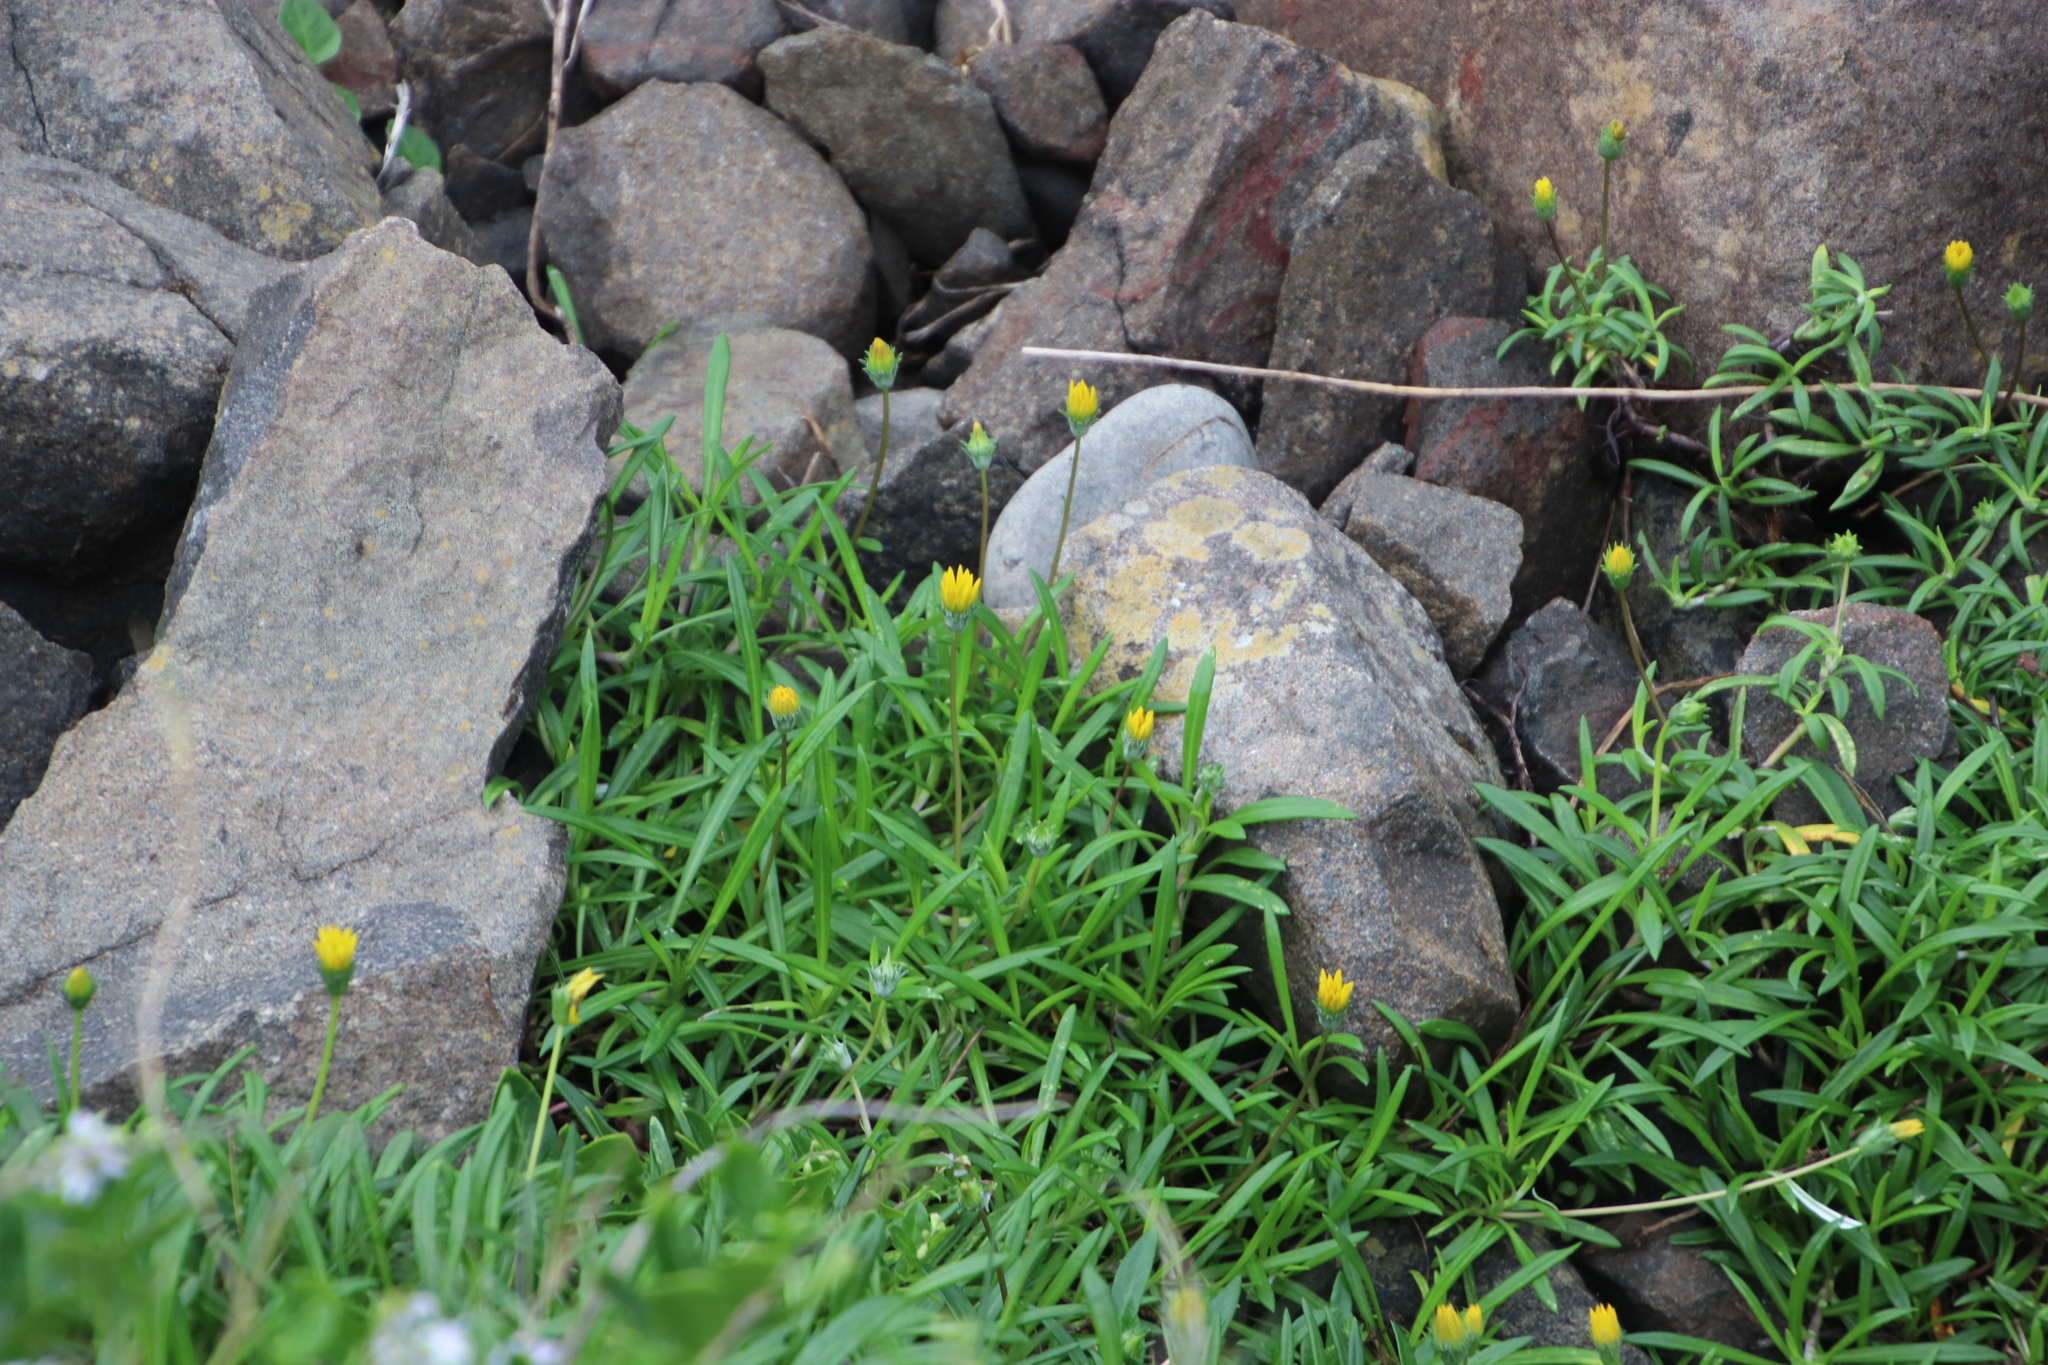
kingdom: Plantae
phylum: Tracheophyta
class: Magnoliopsida
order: Asterales
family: Asteraceae
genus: Gazania
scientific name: Gazania rigens
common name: Treasureflower
